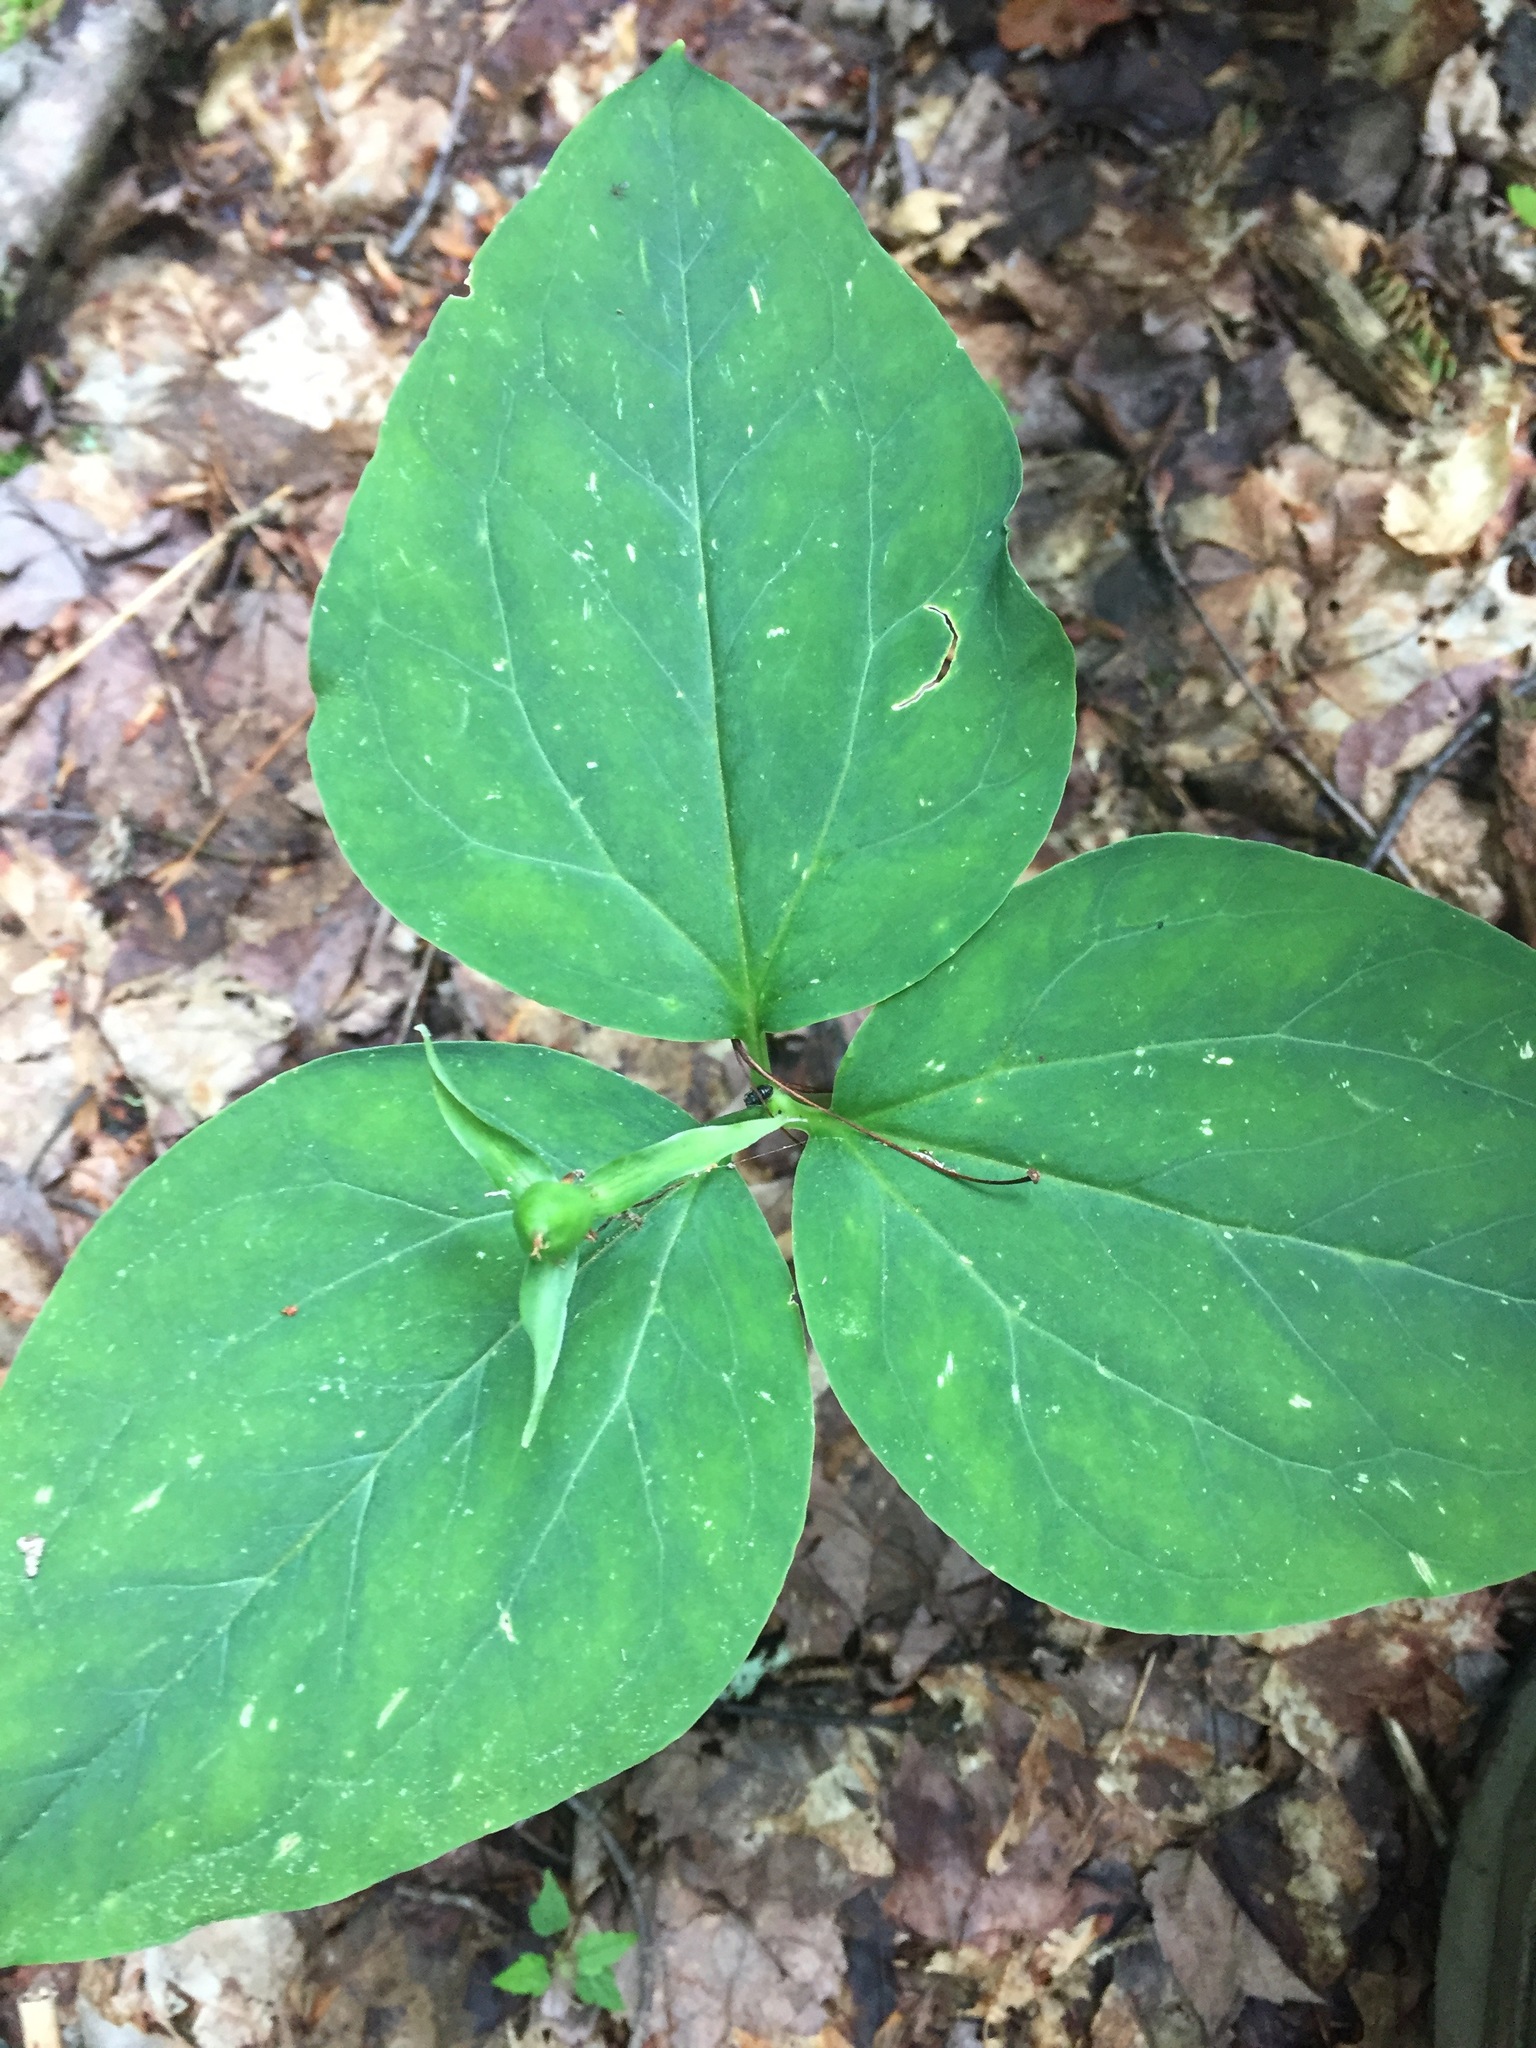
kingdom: Plantae
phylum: Tracheophyta
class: Liliopsida
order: Liliales
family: Melanthiaceae
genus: Trillium
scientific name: Trillium undulatum
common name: Paint trillium
